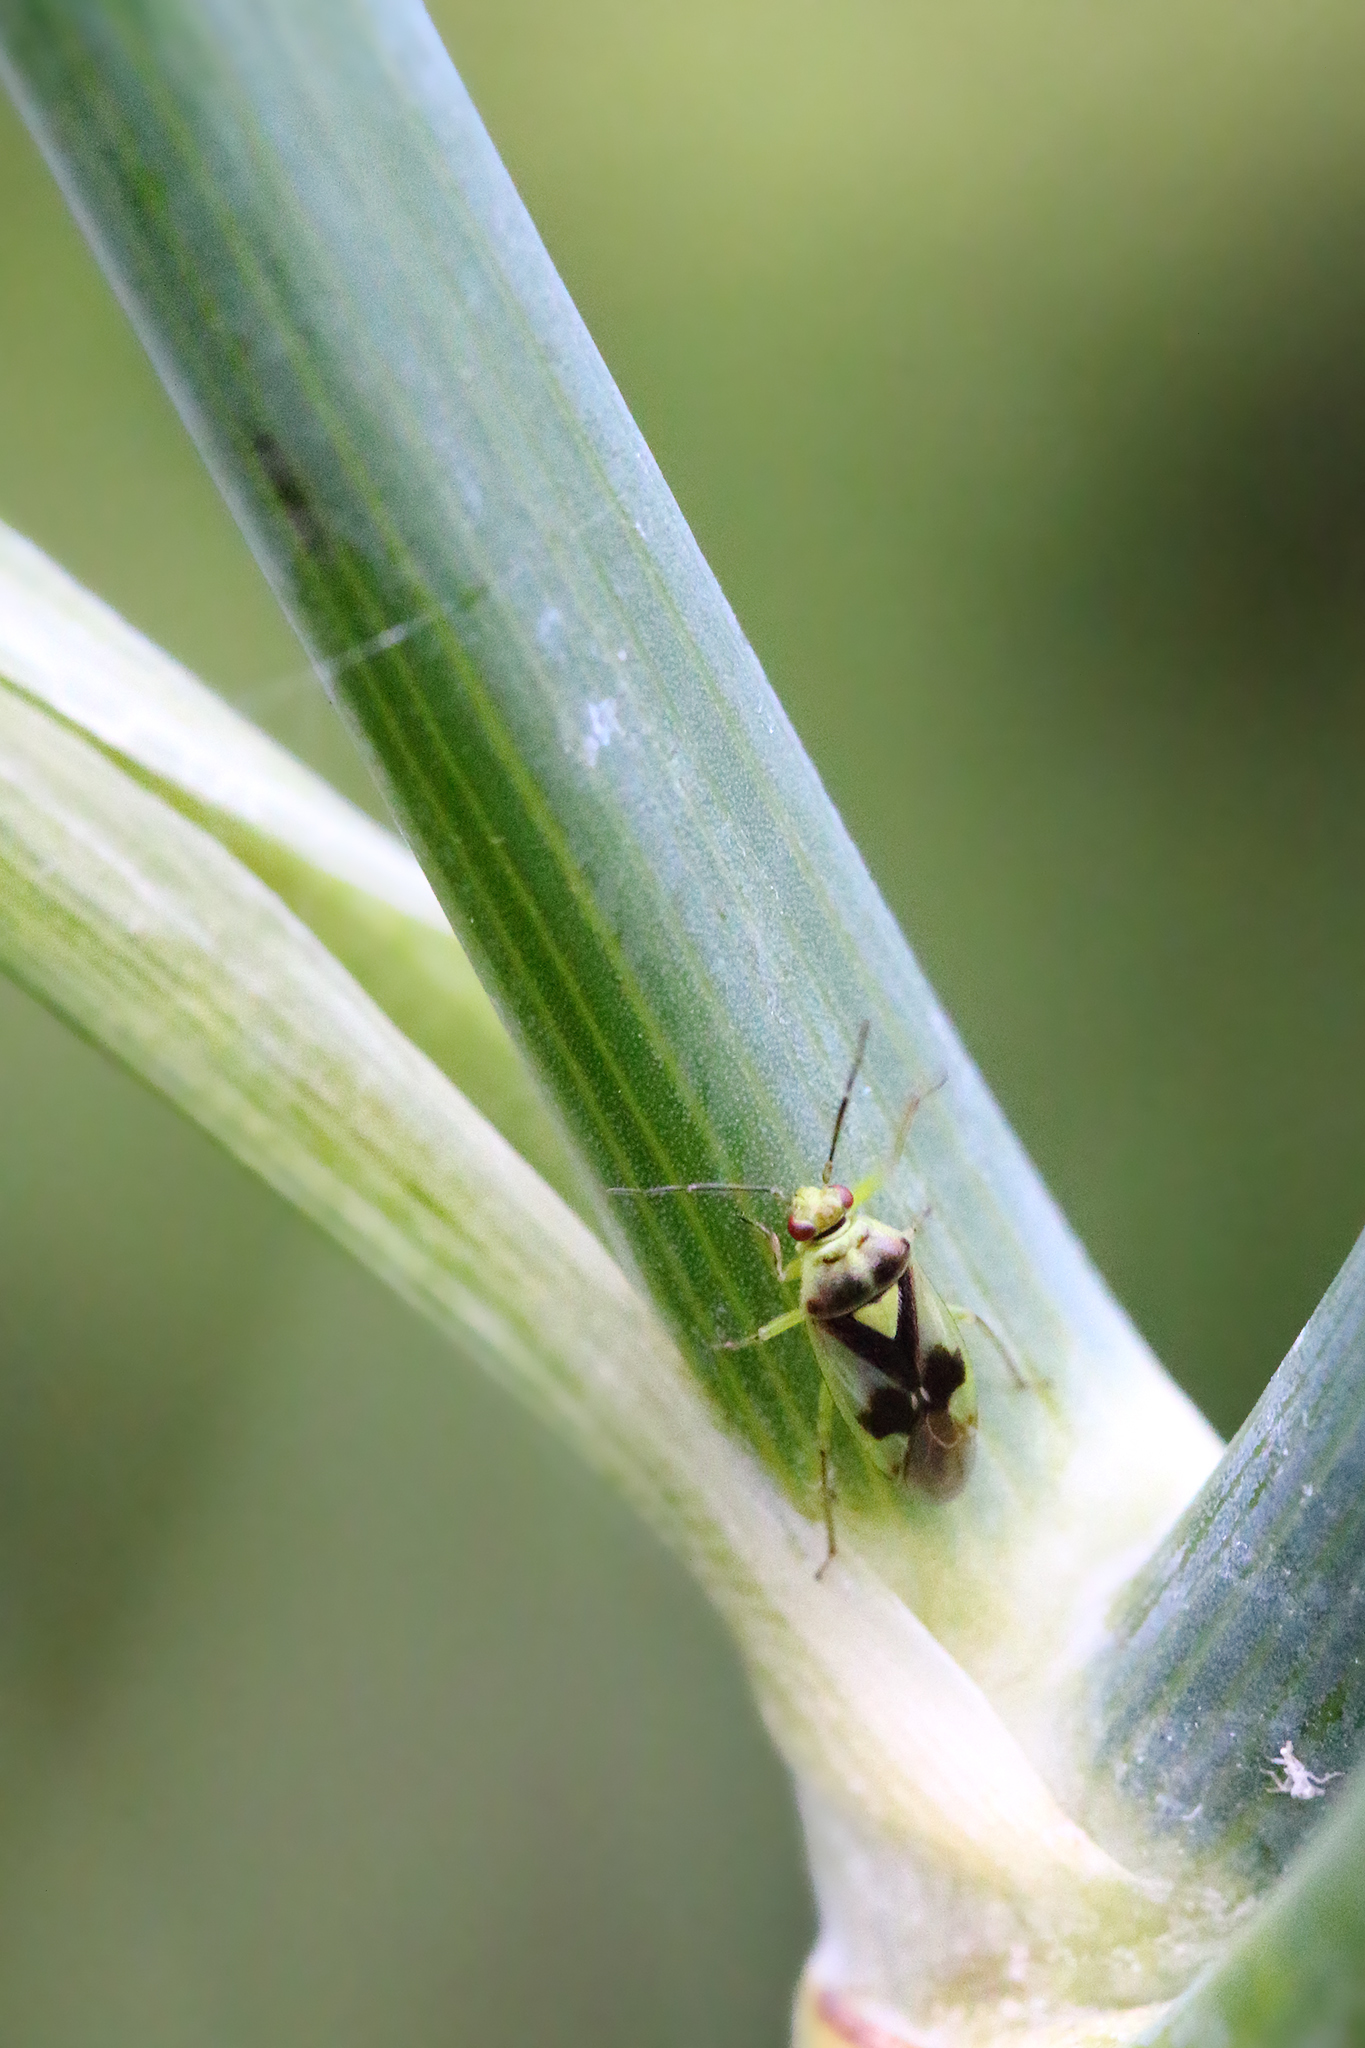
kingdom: Animalia
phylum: Arthropoda
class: Insecta
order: Hemiptera
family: Miridae
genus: Orthops
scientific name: Orthops campestris
